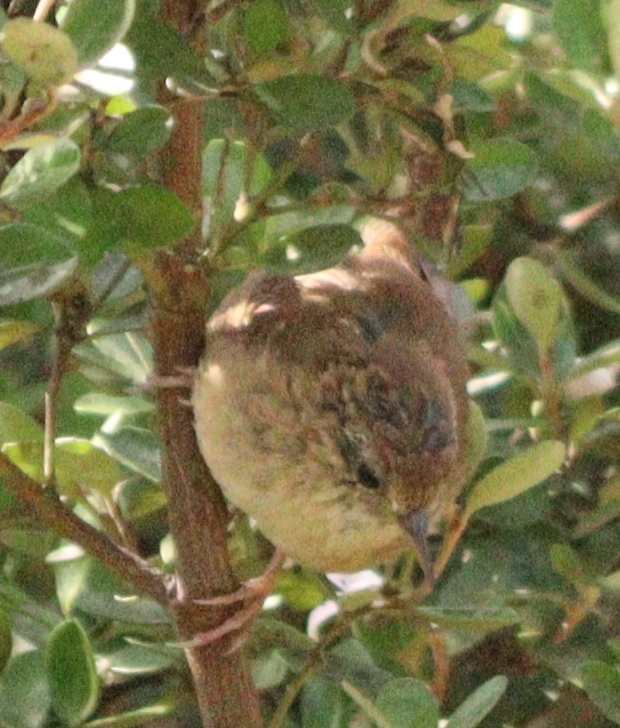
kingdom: Animalia
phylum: Chordata
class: Aves
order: Passeriformes
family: Troglodytidae
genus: Troglodytes
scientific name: Troglodytes troglodytes
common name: Eurasian wren
